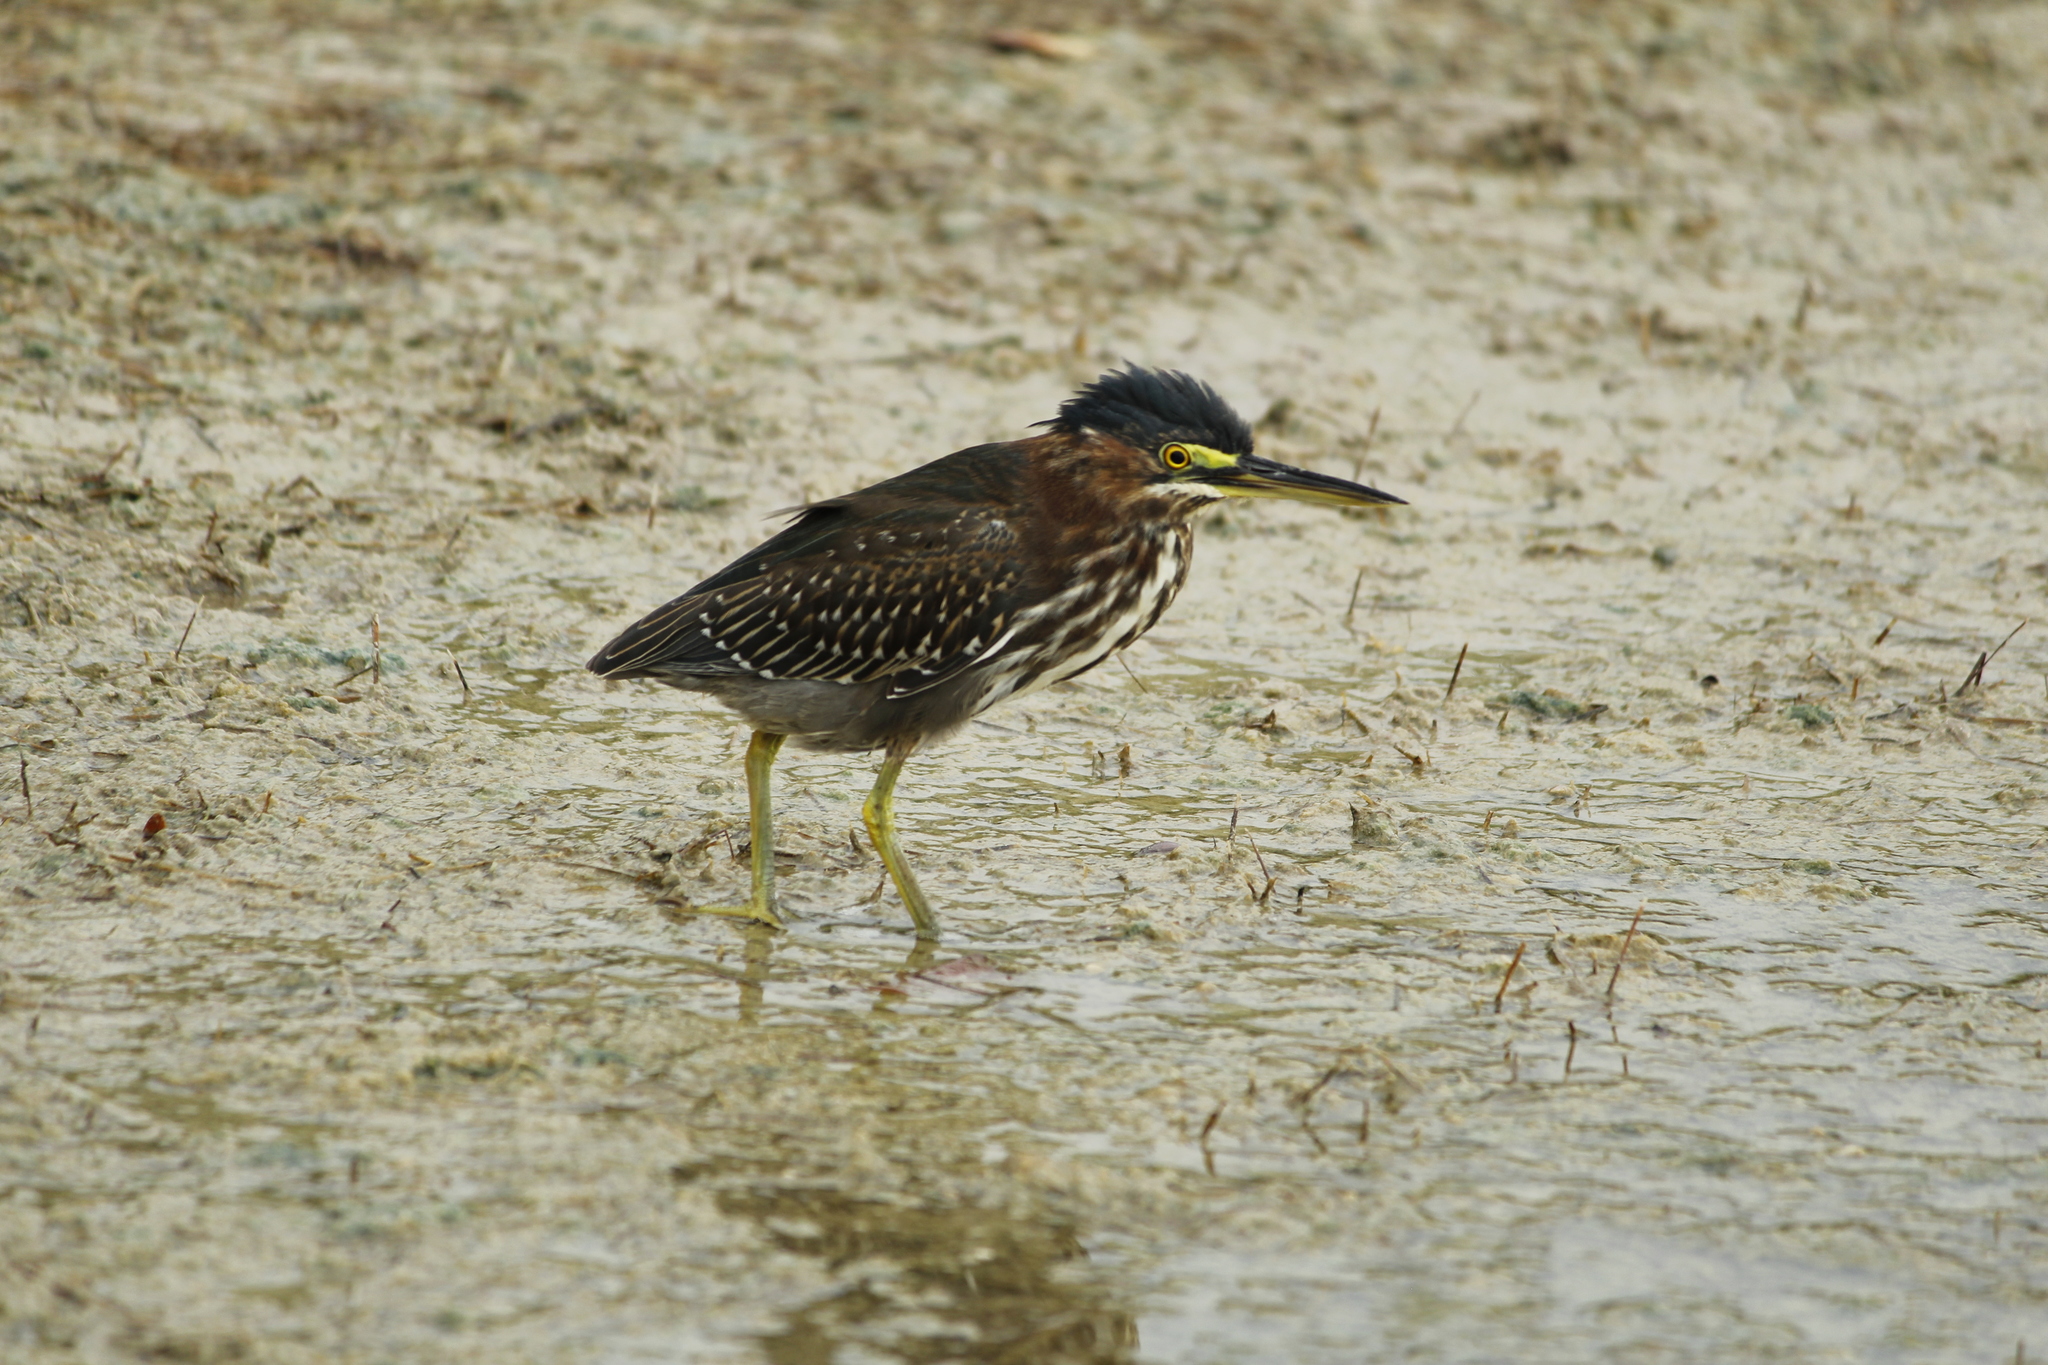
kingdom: Animalia
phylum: Chordata
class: Aves
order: Pelecaniformes
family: Ardeidae
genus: Butorides
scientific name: Butorides virescens
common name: Green heron
